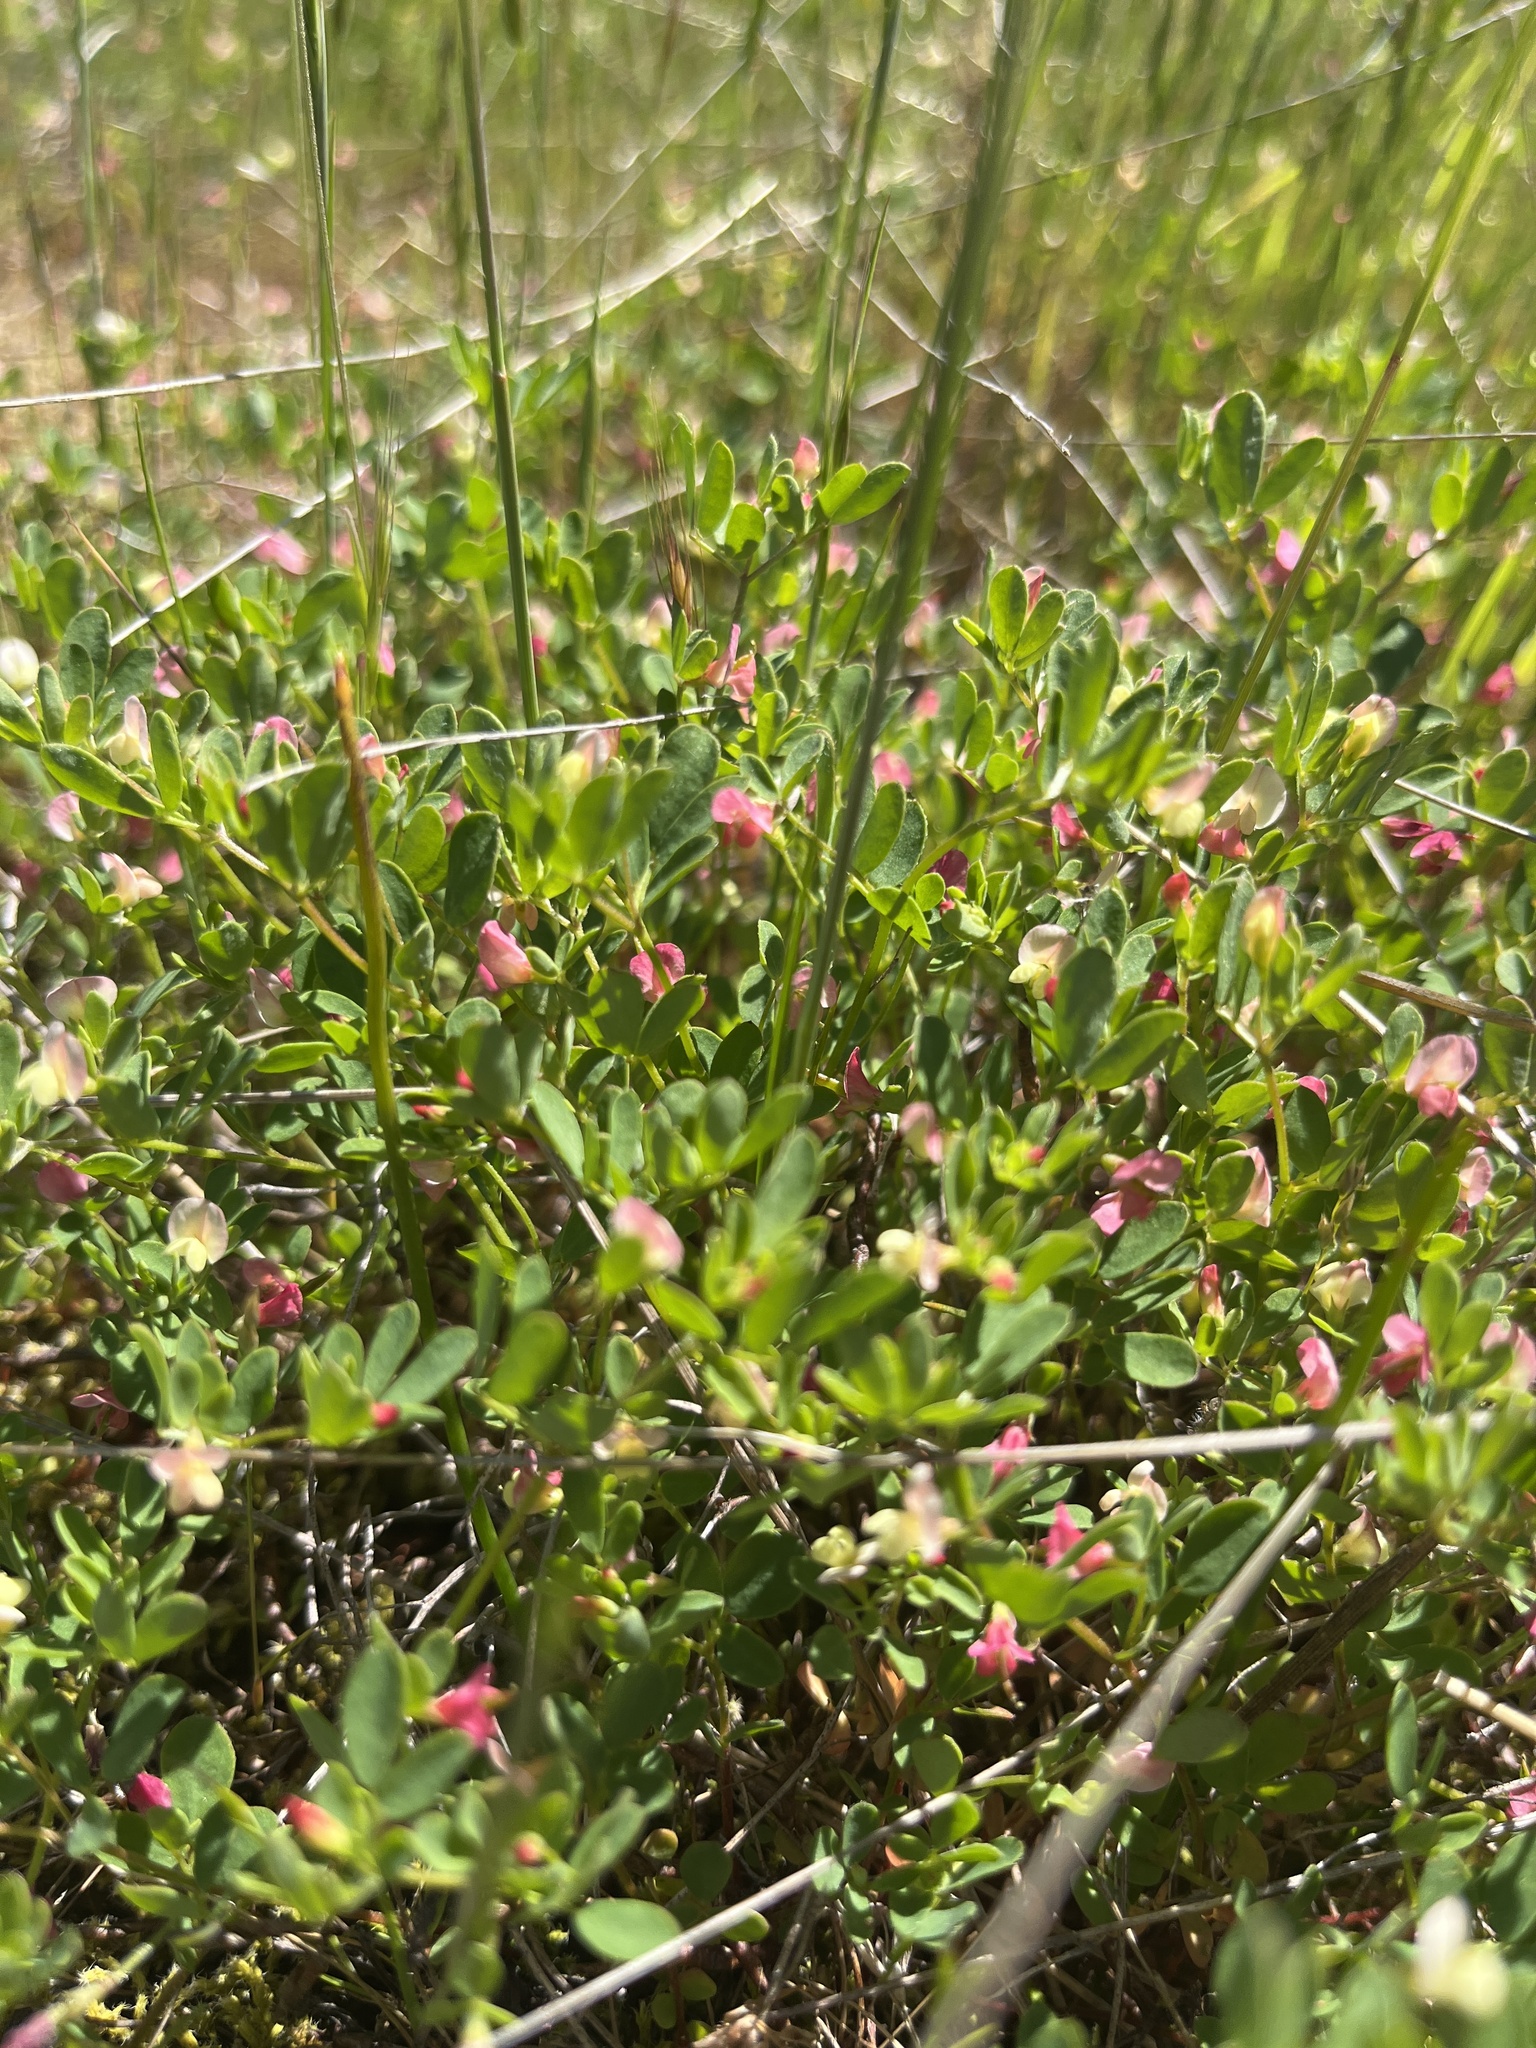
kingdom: Plantae
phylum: Tracheophyta
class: Magnoliopsida
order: Fabales
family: Fabaceae
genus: Acmispon
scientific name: Acmispon parviflorus
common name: Desert deer-vetch
